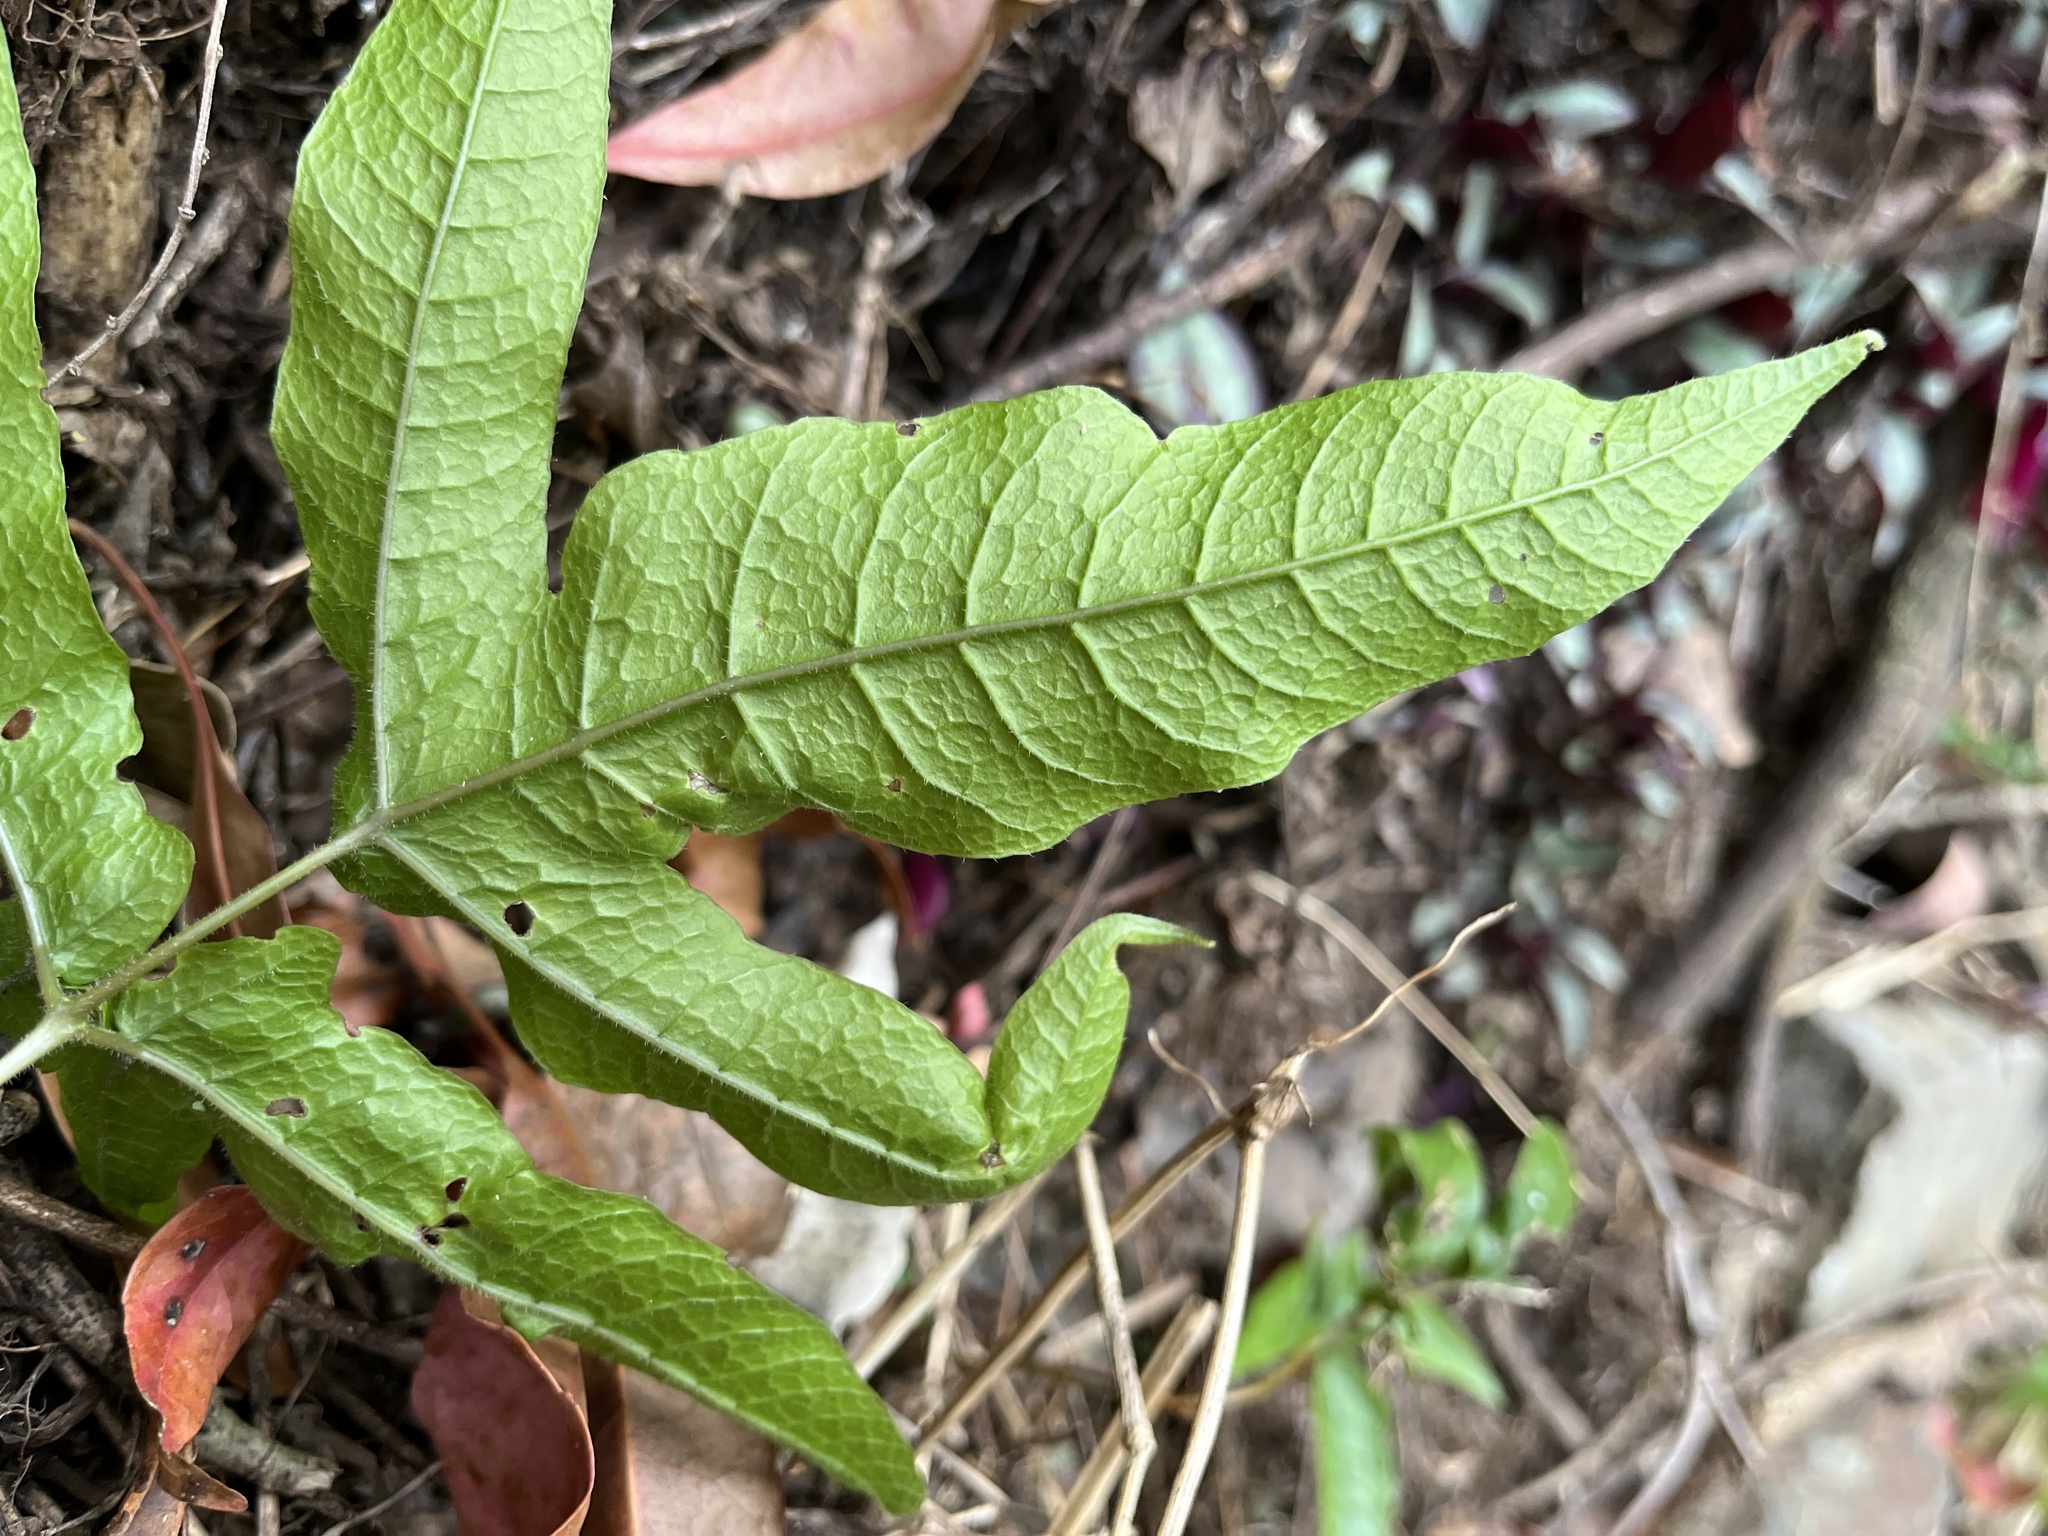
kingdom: Plantae
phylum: Tracheophyta
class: Polypodiopsida
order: Polypodiales
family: Tectariaceae
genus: Tectaria
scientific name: Tectaria subtriphylla
